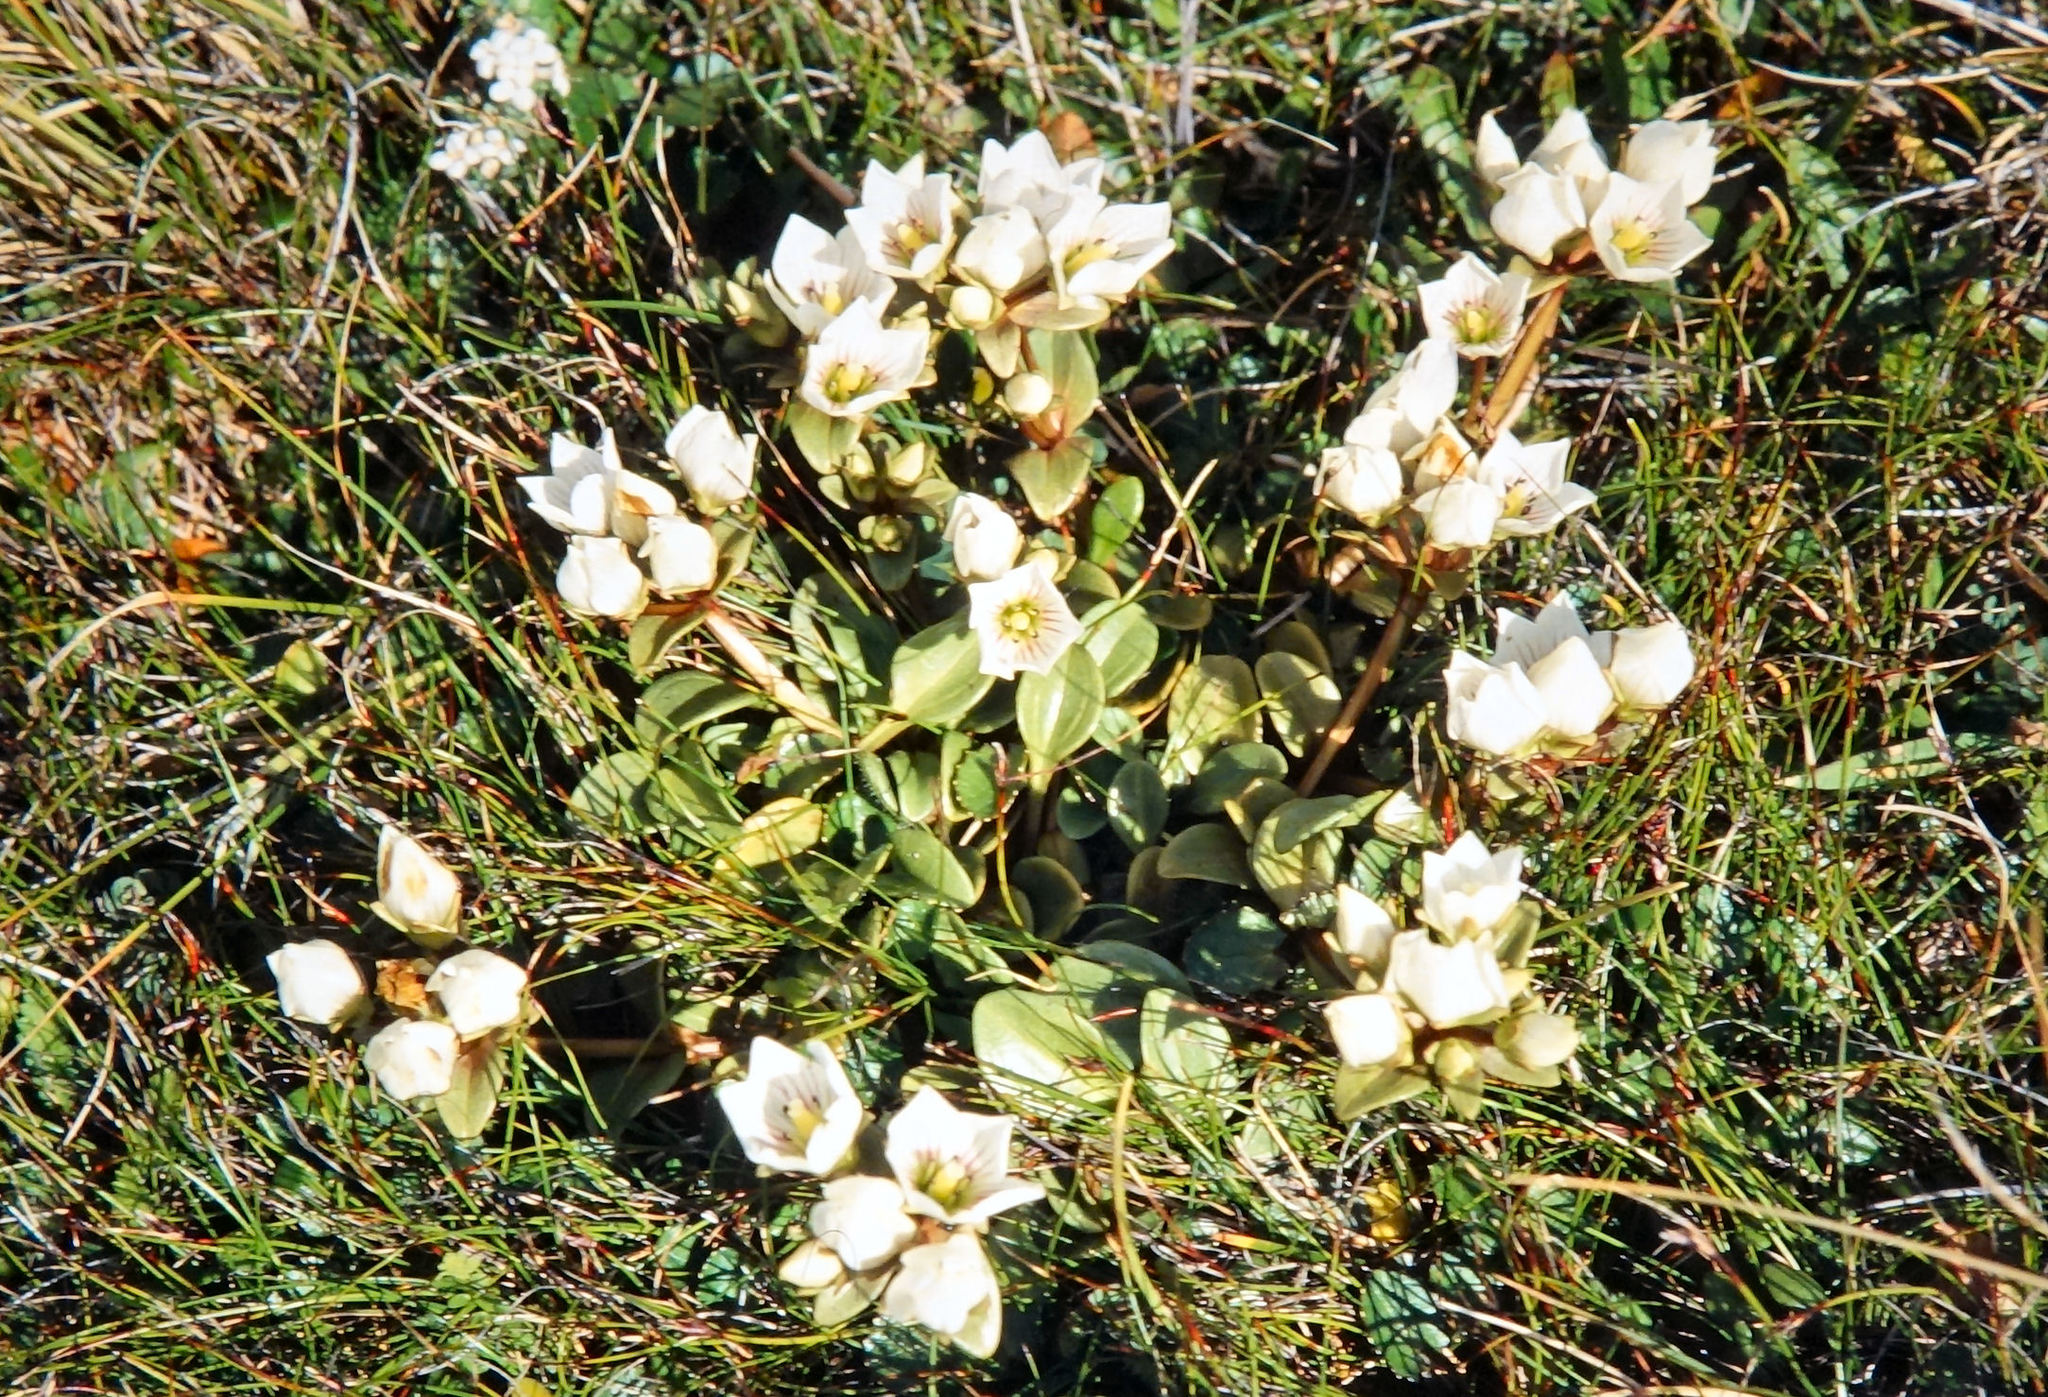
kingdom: Plantae
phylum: Tracheophyta
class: Magnoliopsida
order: Gentianales
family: Gentianaceae
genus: Gentianella
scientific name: Gentianella stevenii
